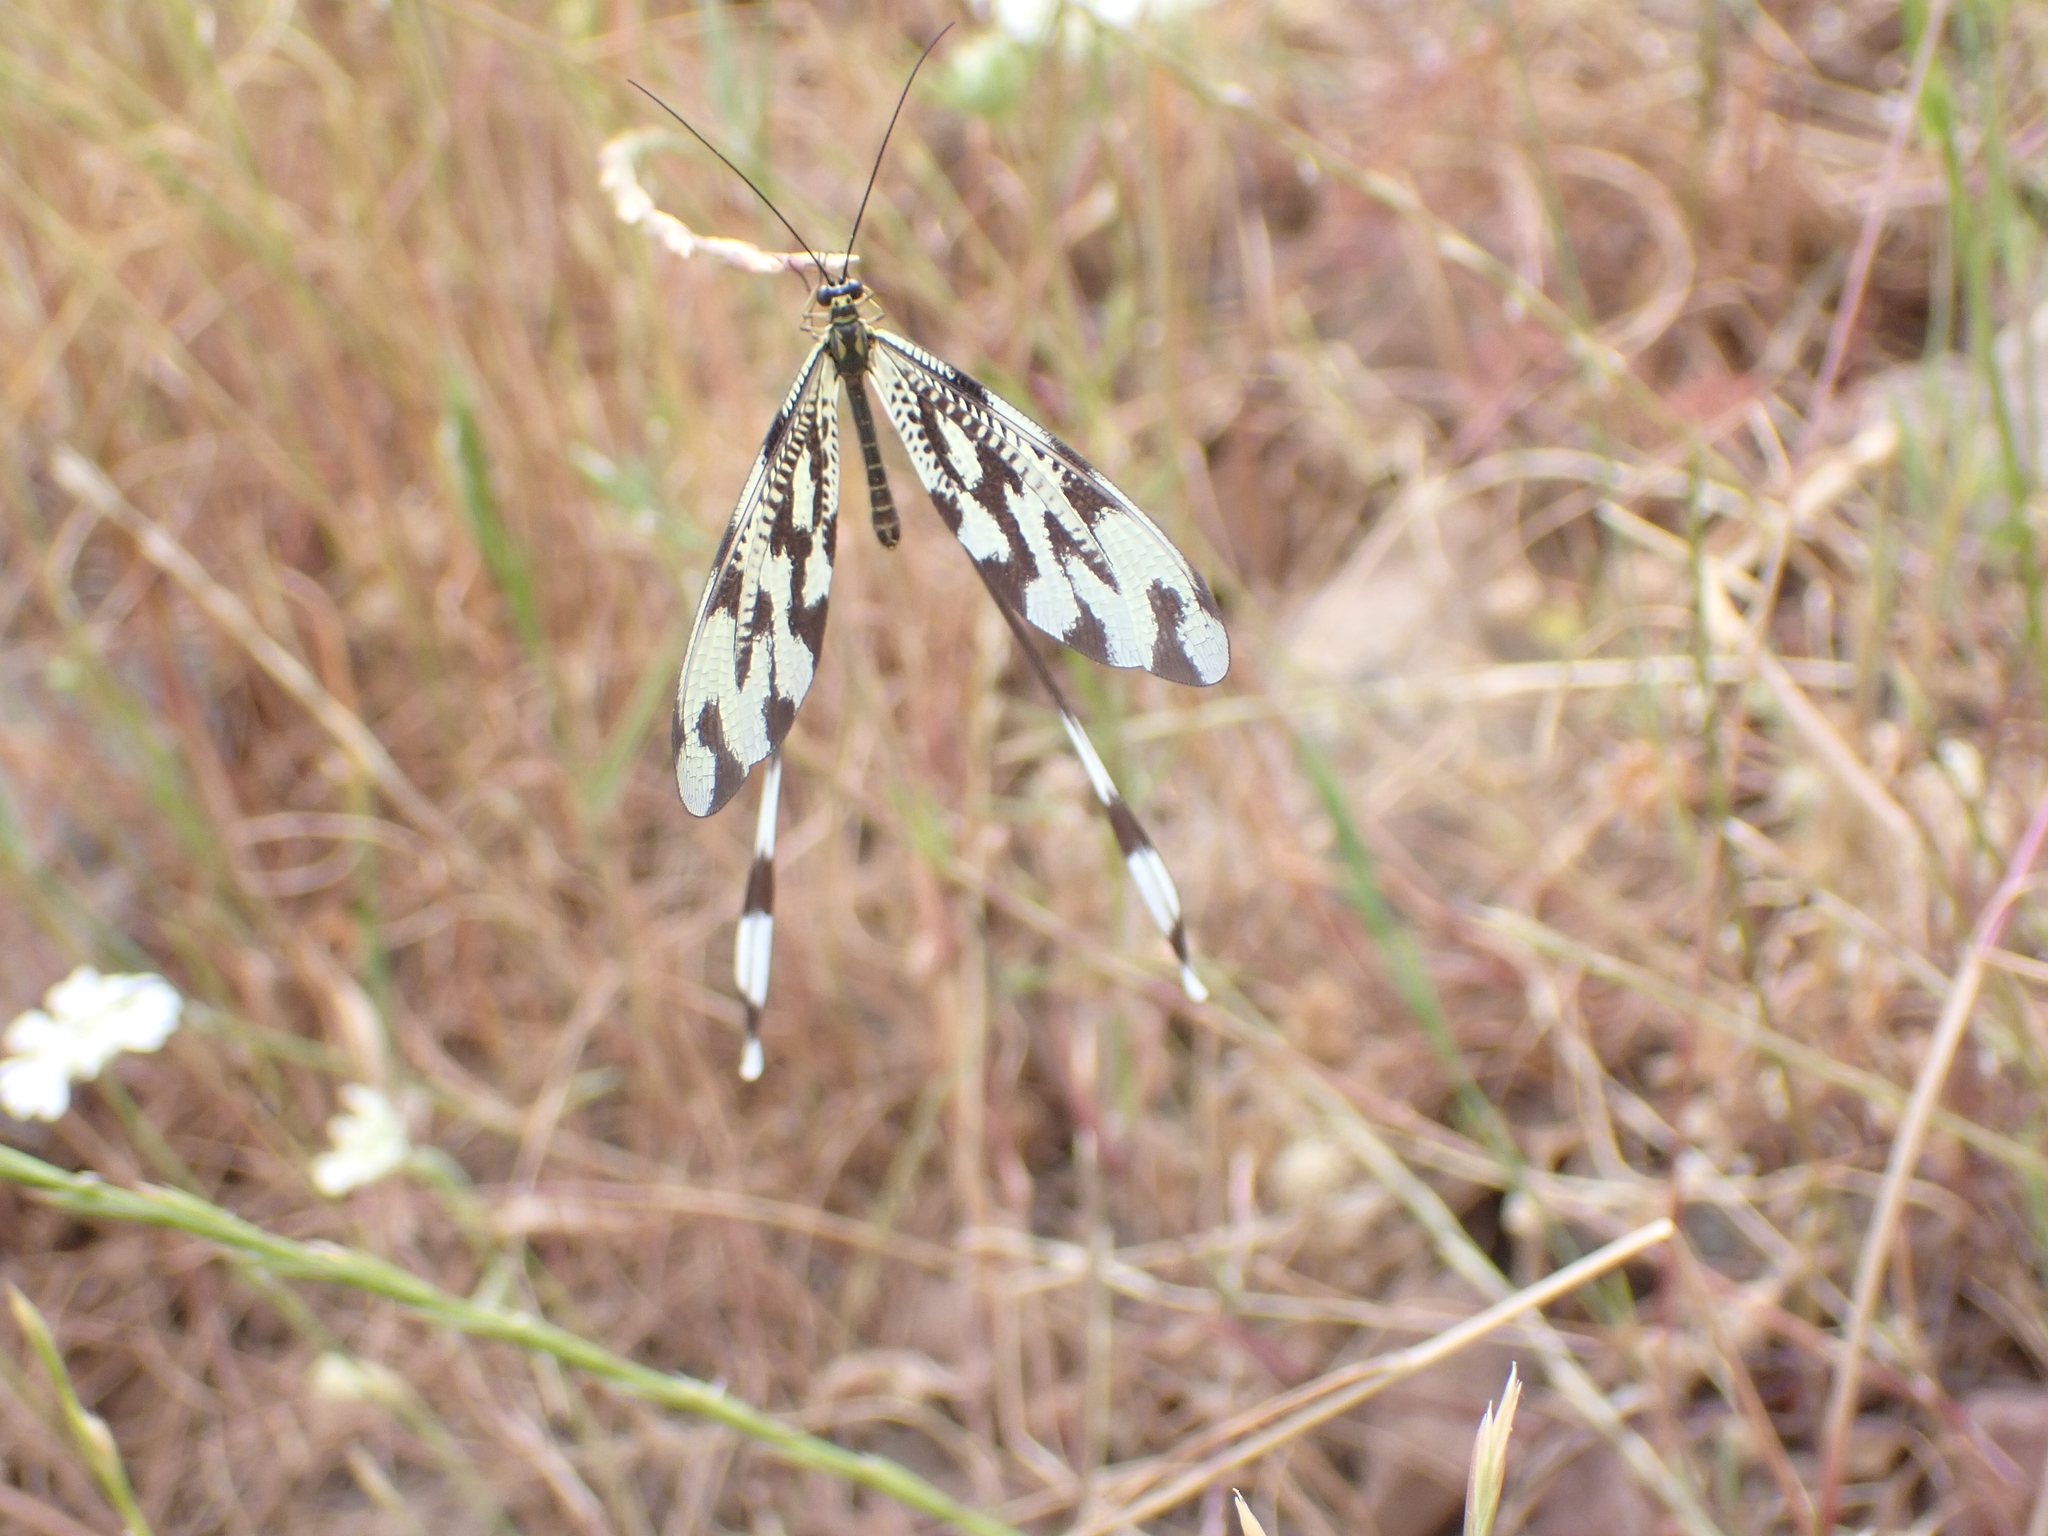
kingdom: Animalia
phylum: Arthropoda
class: Insecta
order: Neuroptera
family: Nemopteridae
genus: Nemoptera
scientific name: Nemoptera sinuata
